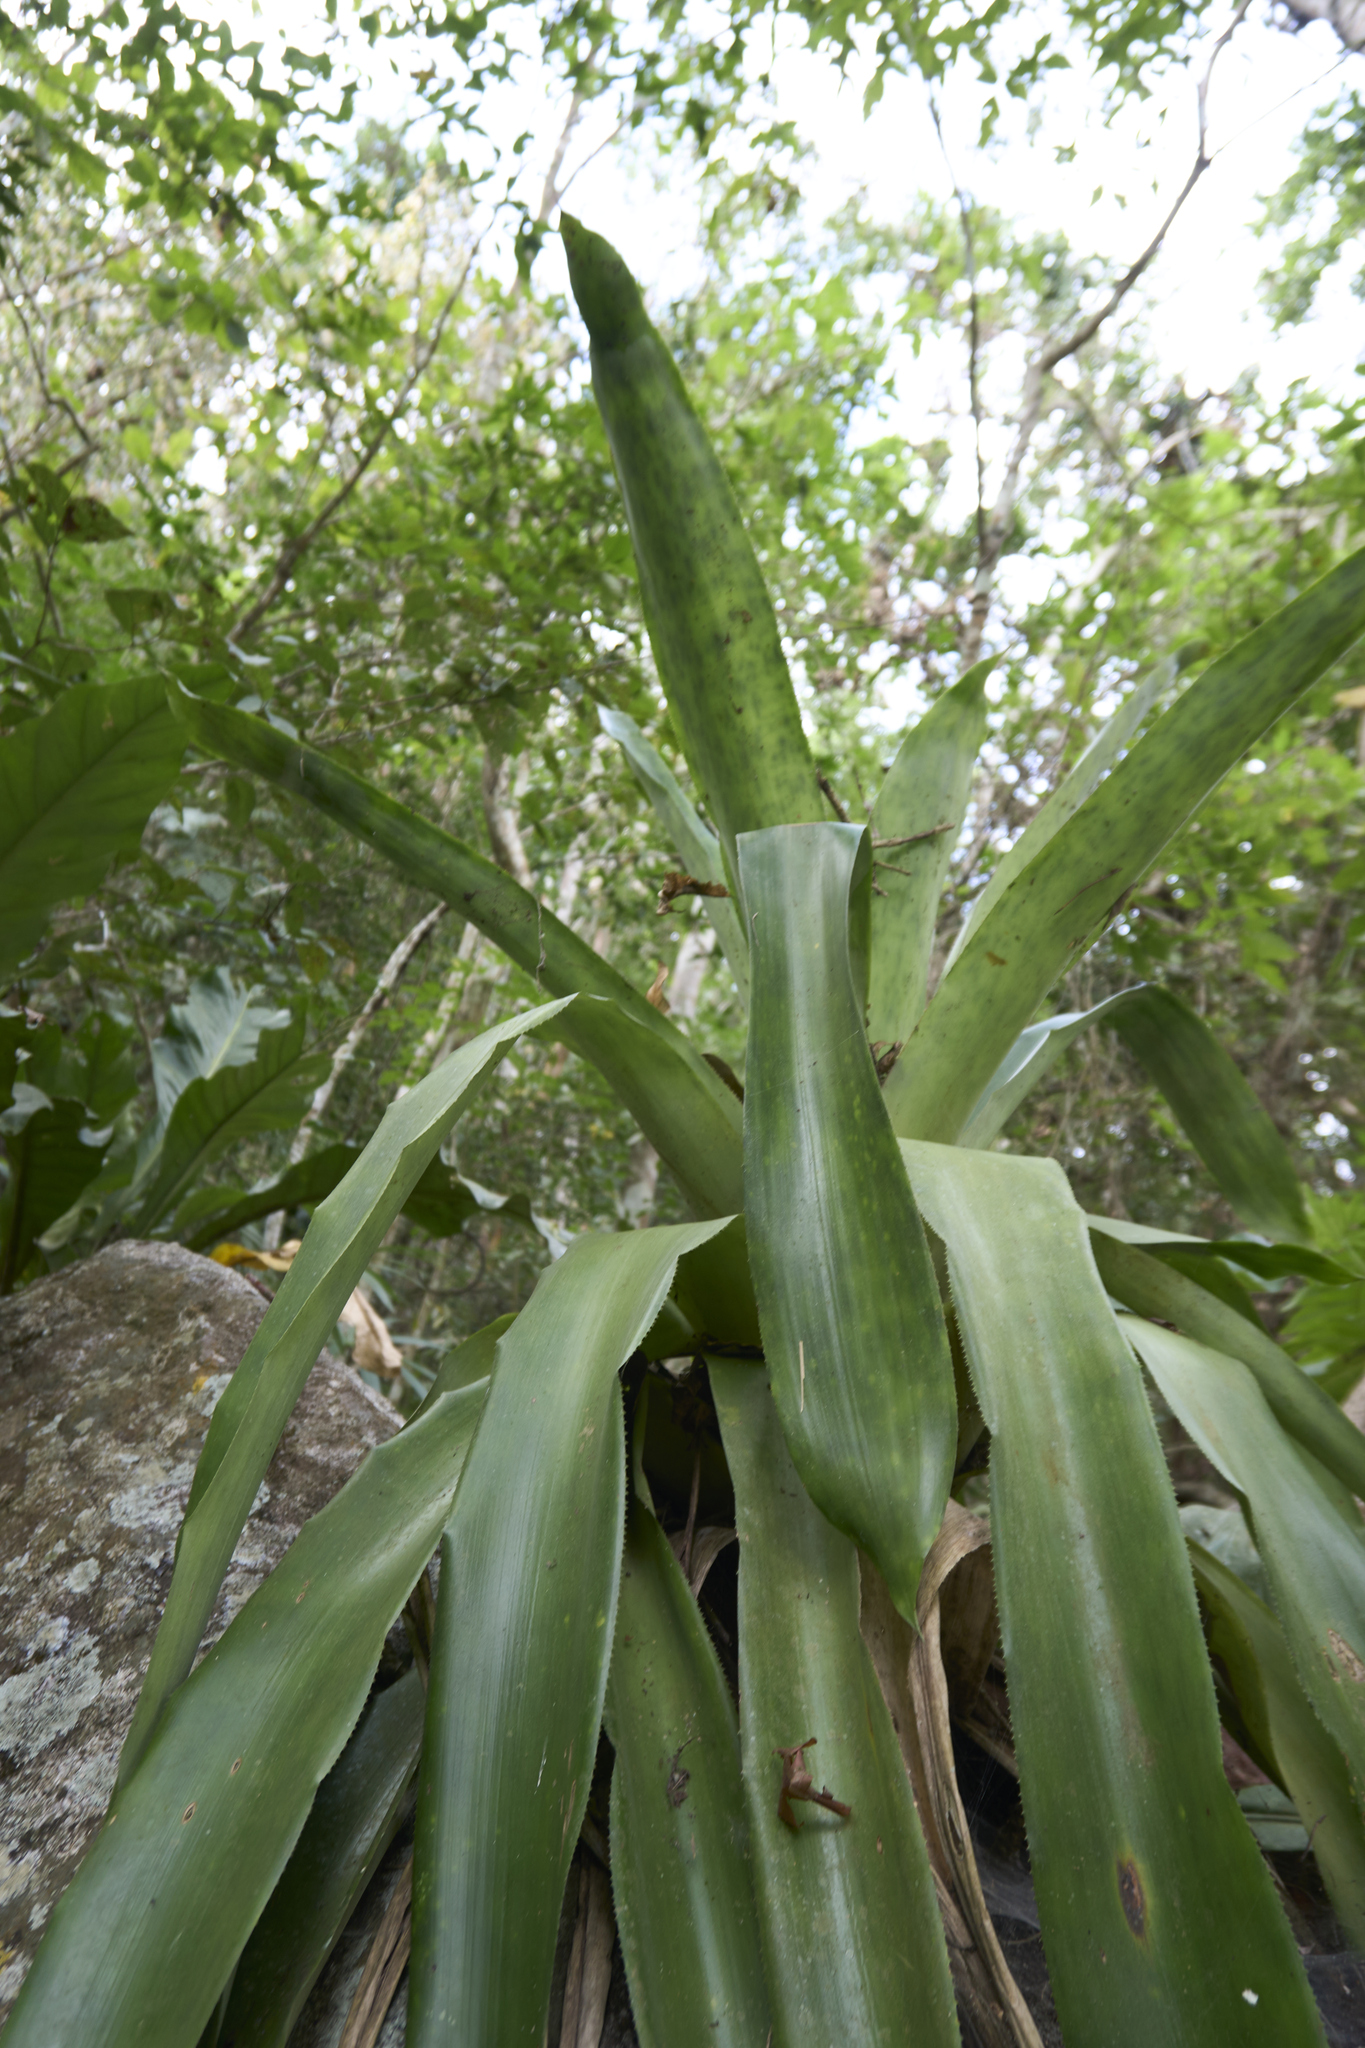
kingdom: Plantae
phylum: Tracheophyta
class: Liliopsida
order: Poales
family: Bromeliaceae
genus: Aechmea
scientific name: Aechmea novoae
